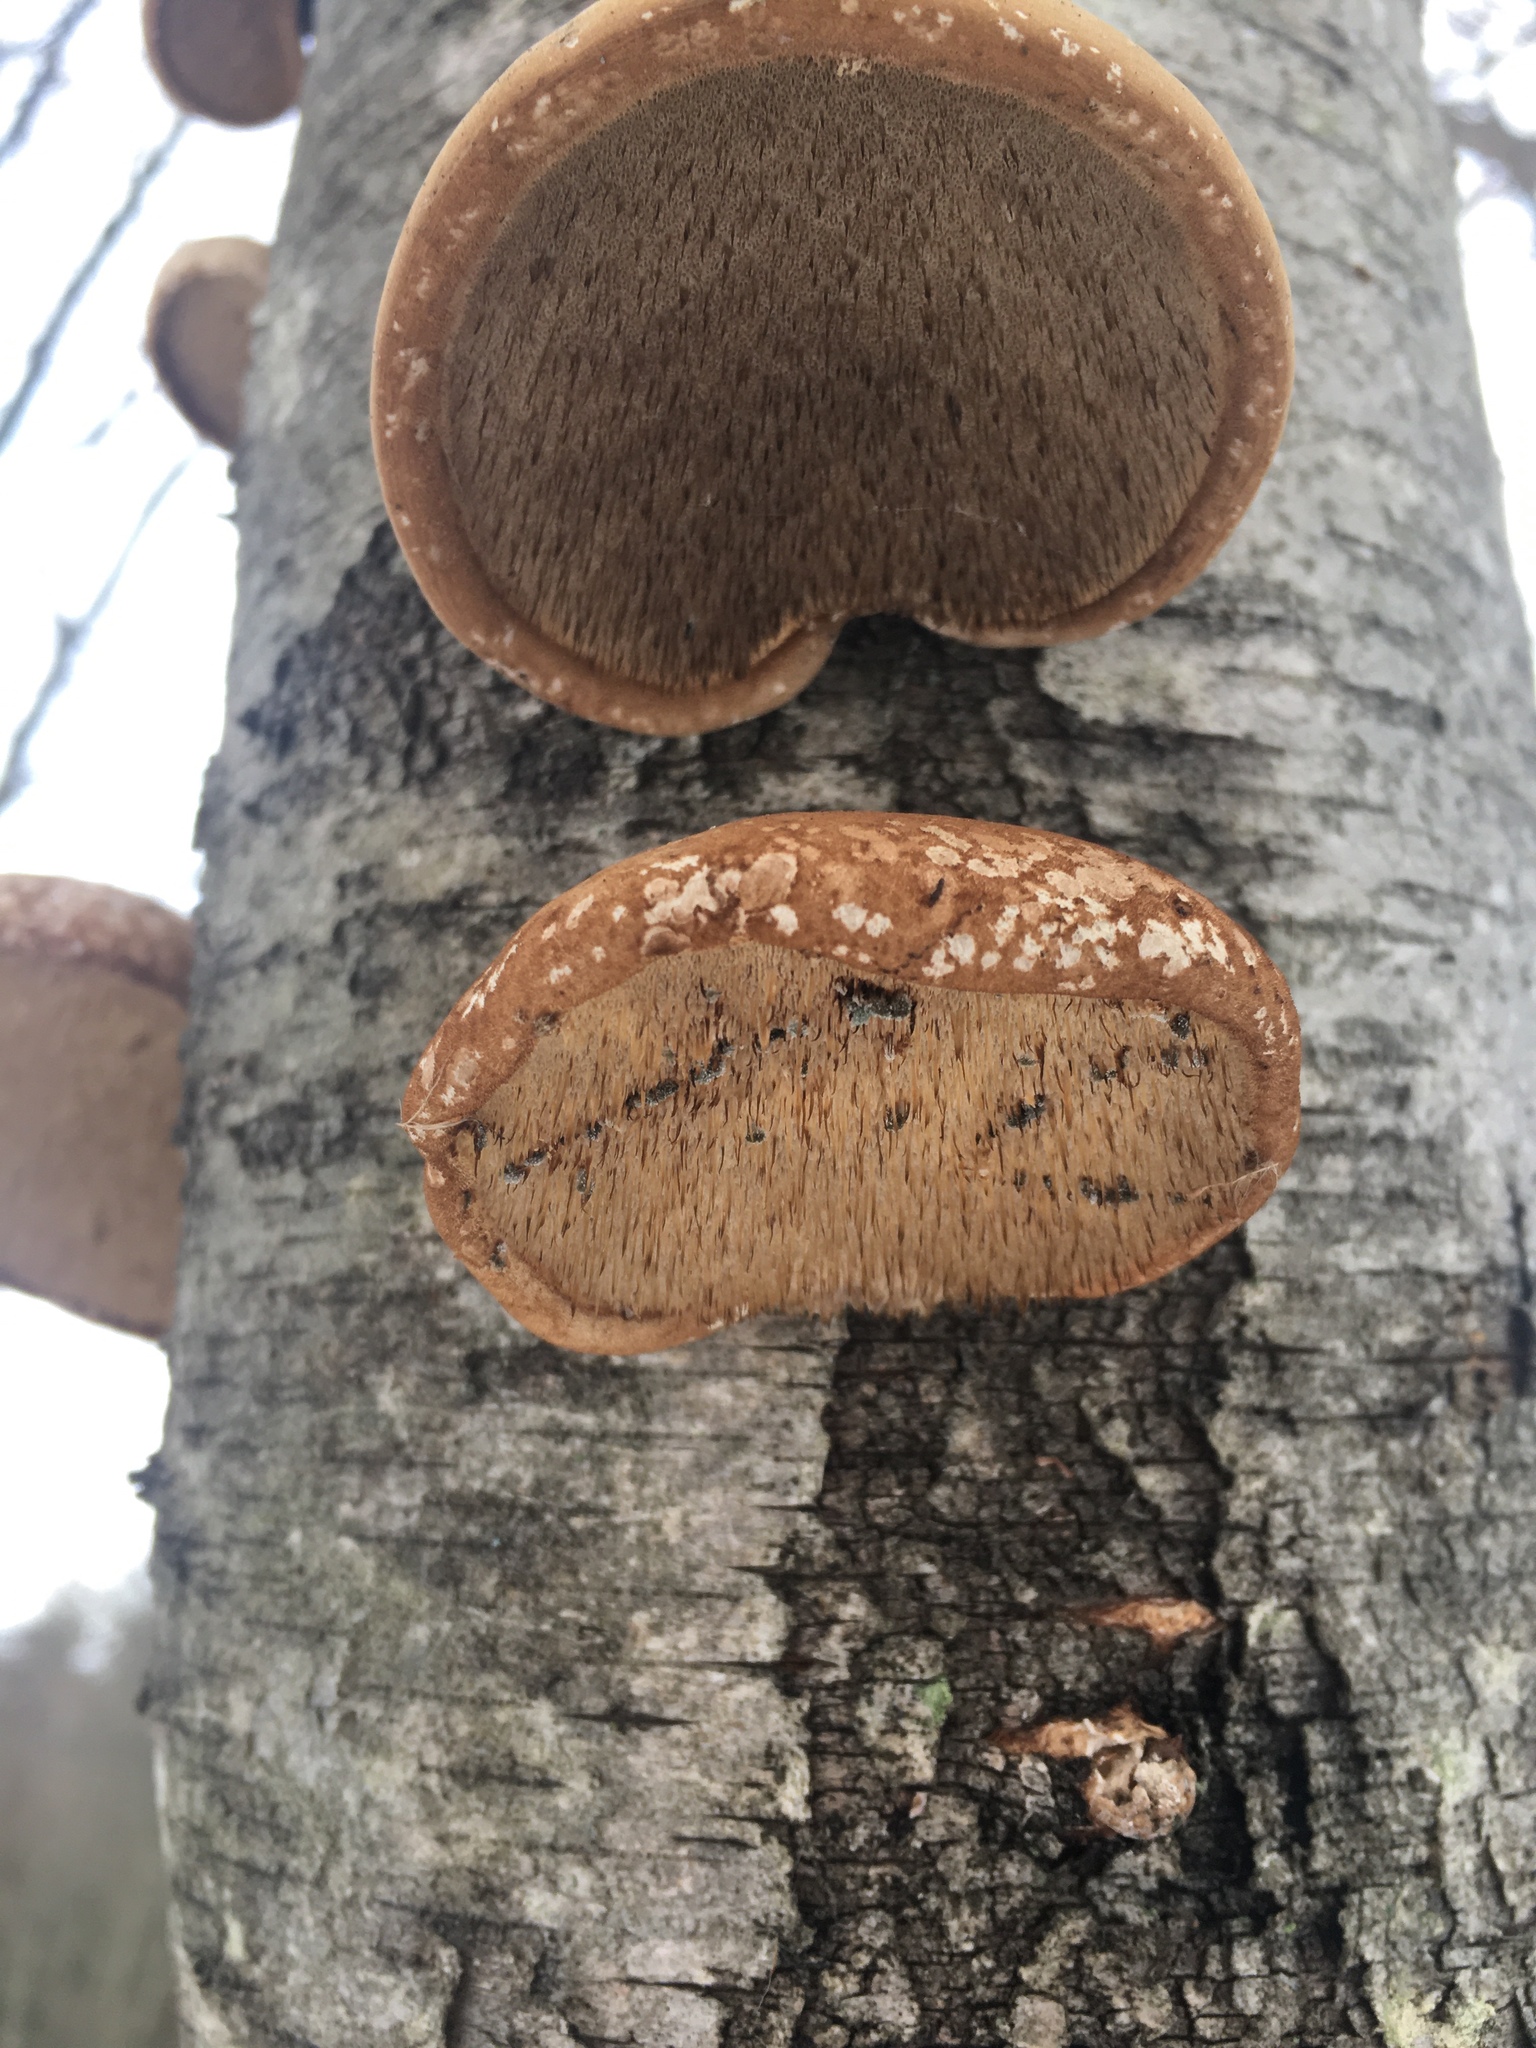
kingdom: Fungi
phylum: Basidiomycota
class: Agaricomycetes
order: Polyporales
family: Fomitopsidaceae
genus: Fomitopsis
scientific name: Fomitopsis betulina
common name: Birch polypore
